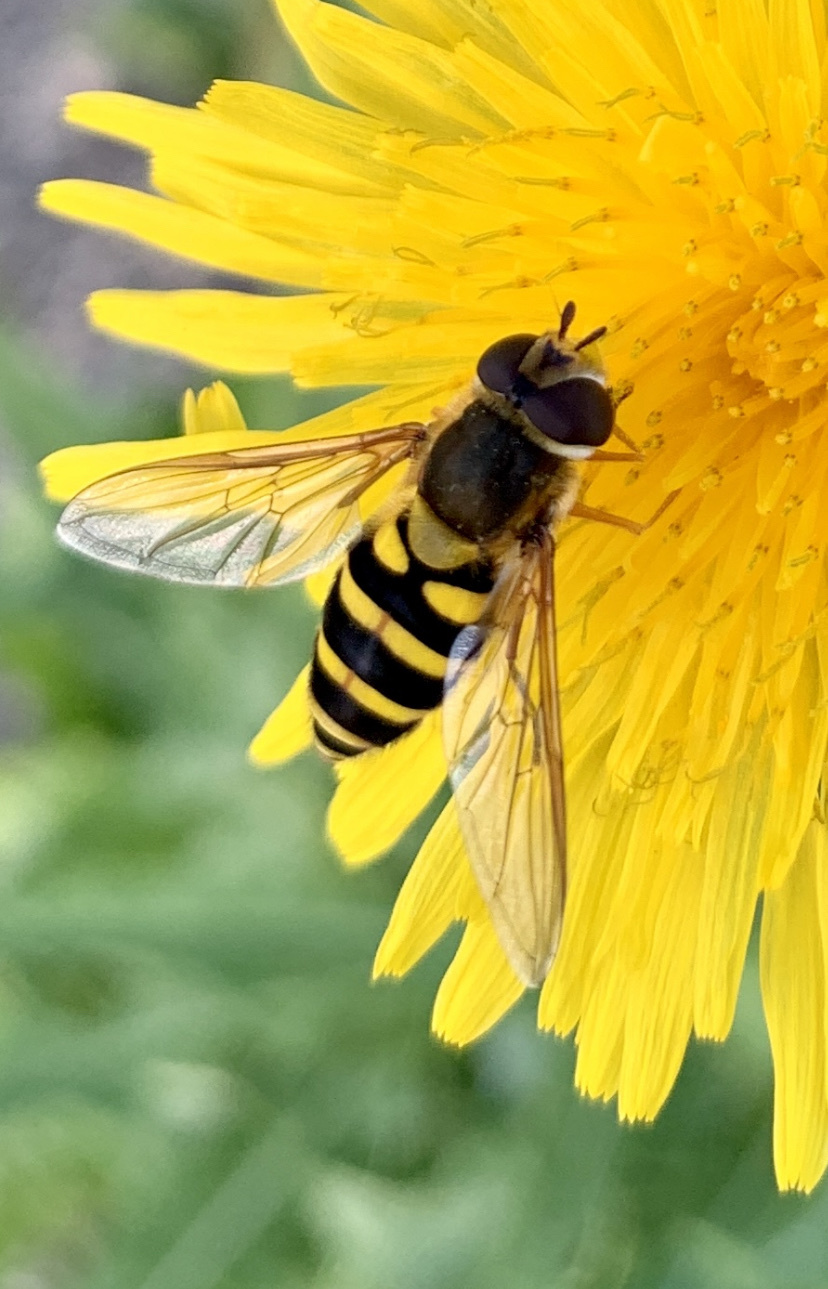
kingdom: Animalia
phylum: Arthropoda
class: Insecta
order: Diptera
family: Syrphidae
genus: Syrphus
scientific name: Syrphus
